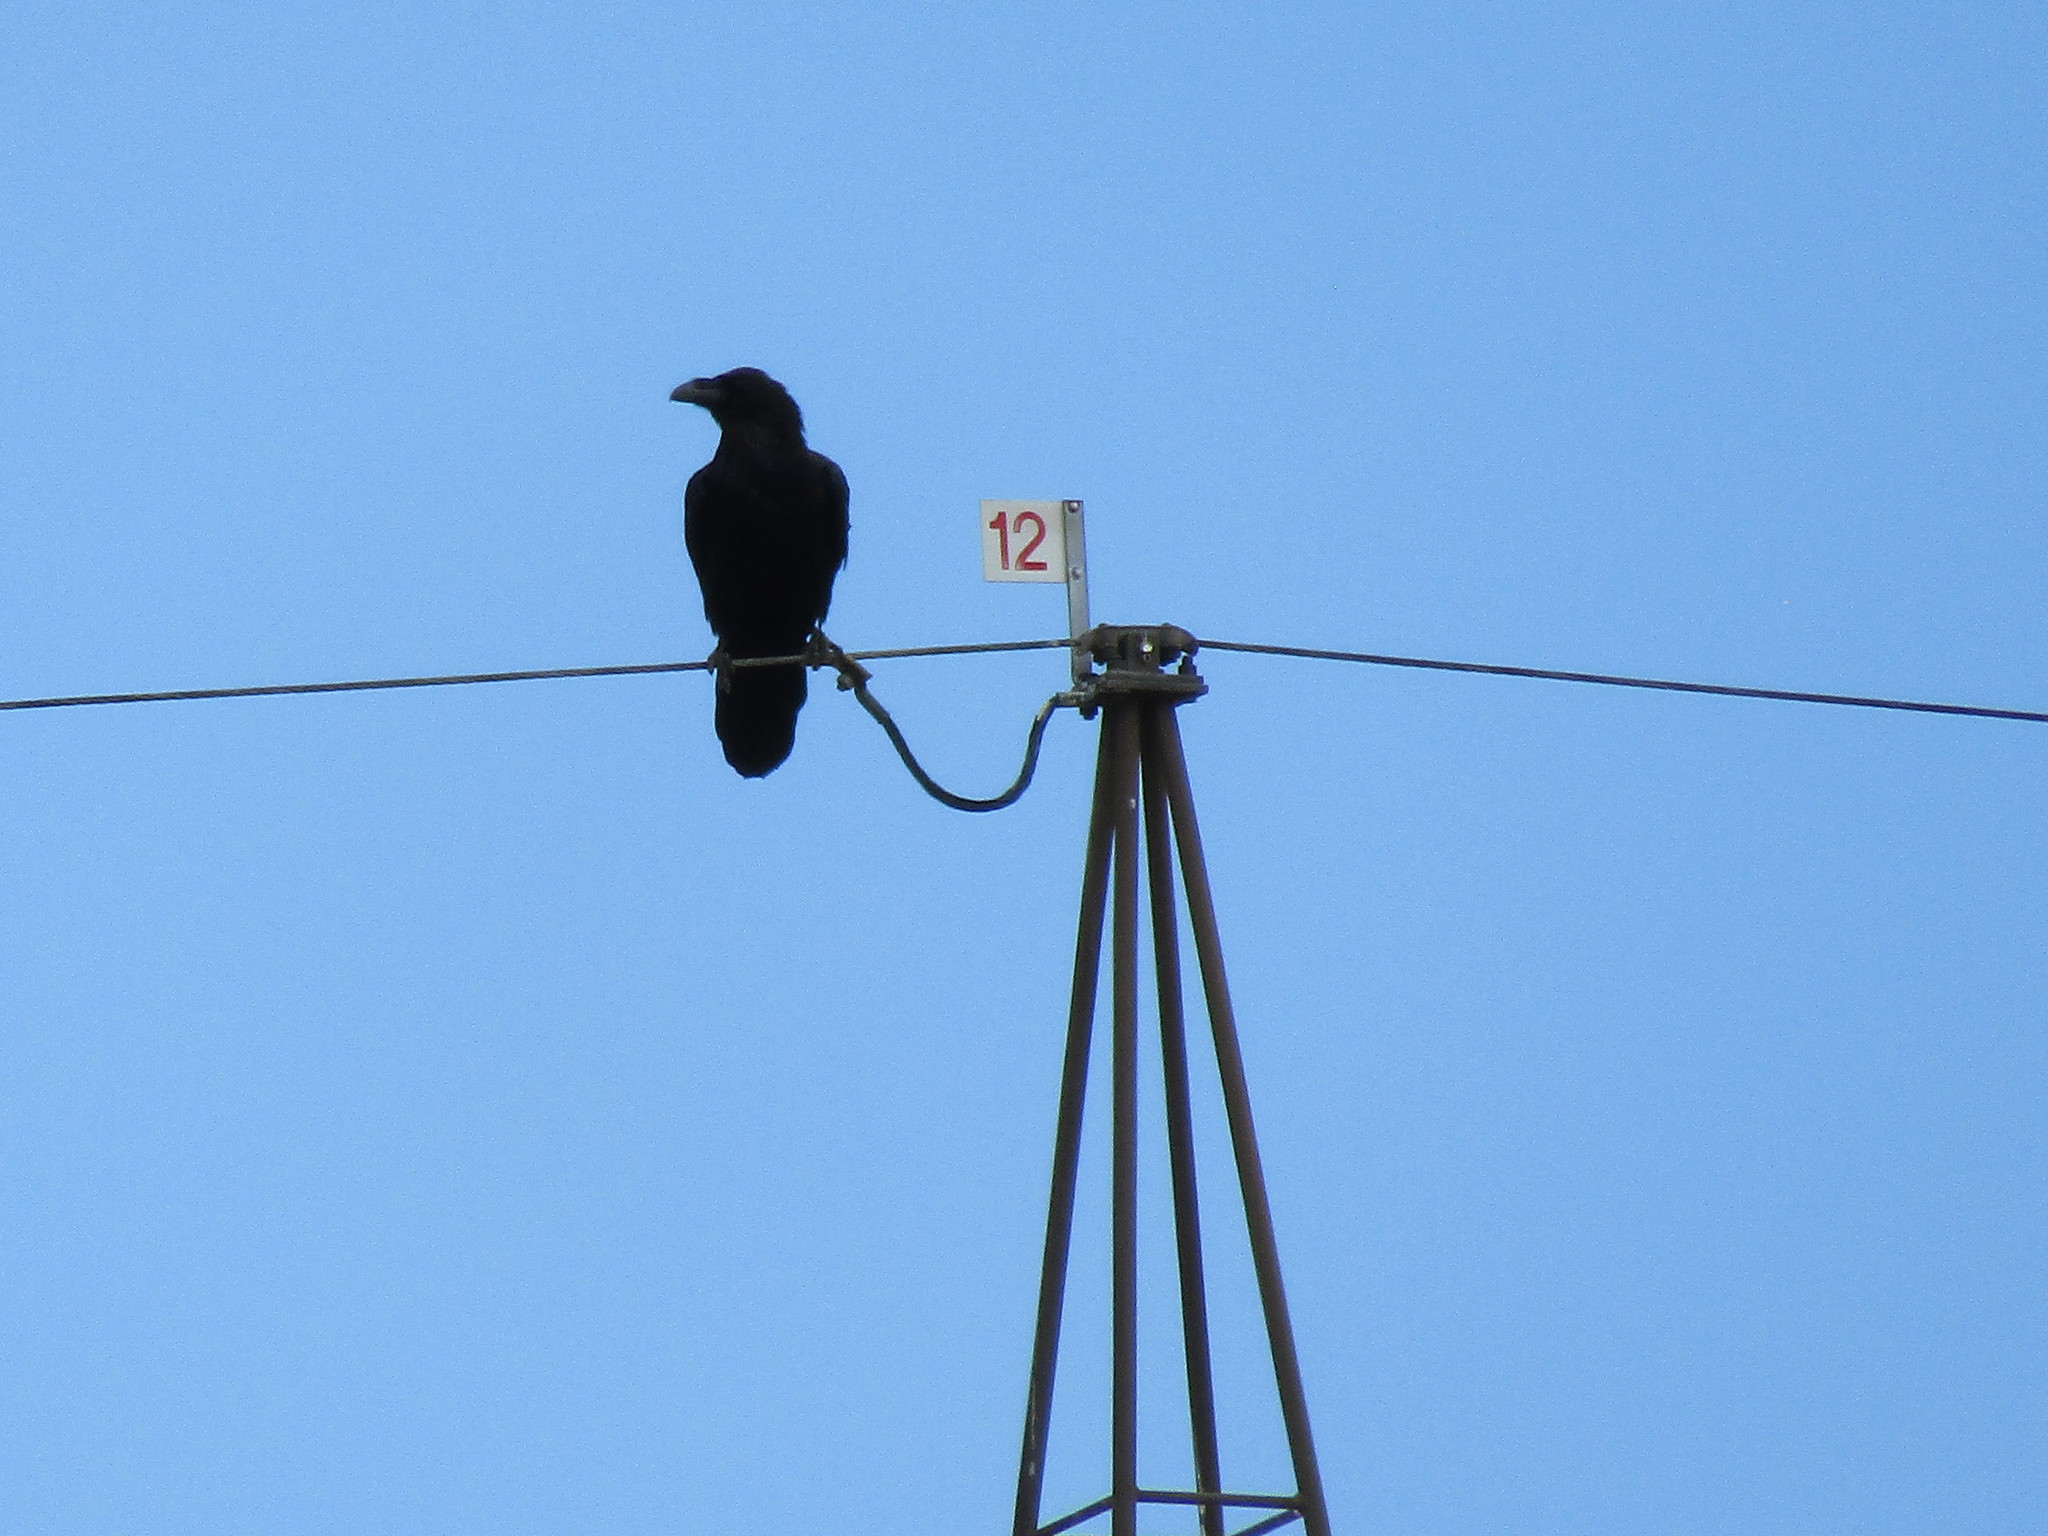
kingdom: Animalia
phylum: Chordata
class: Aves
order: Passeriformes
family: Corvidae
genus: Corvus
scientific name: Corvus corax
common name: Common raven
